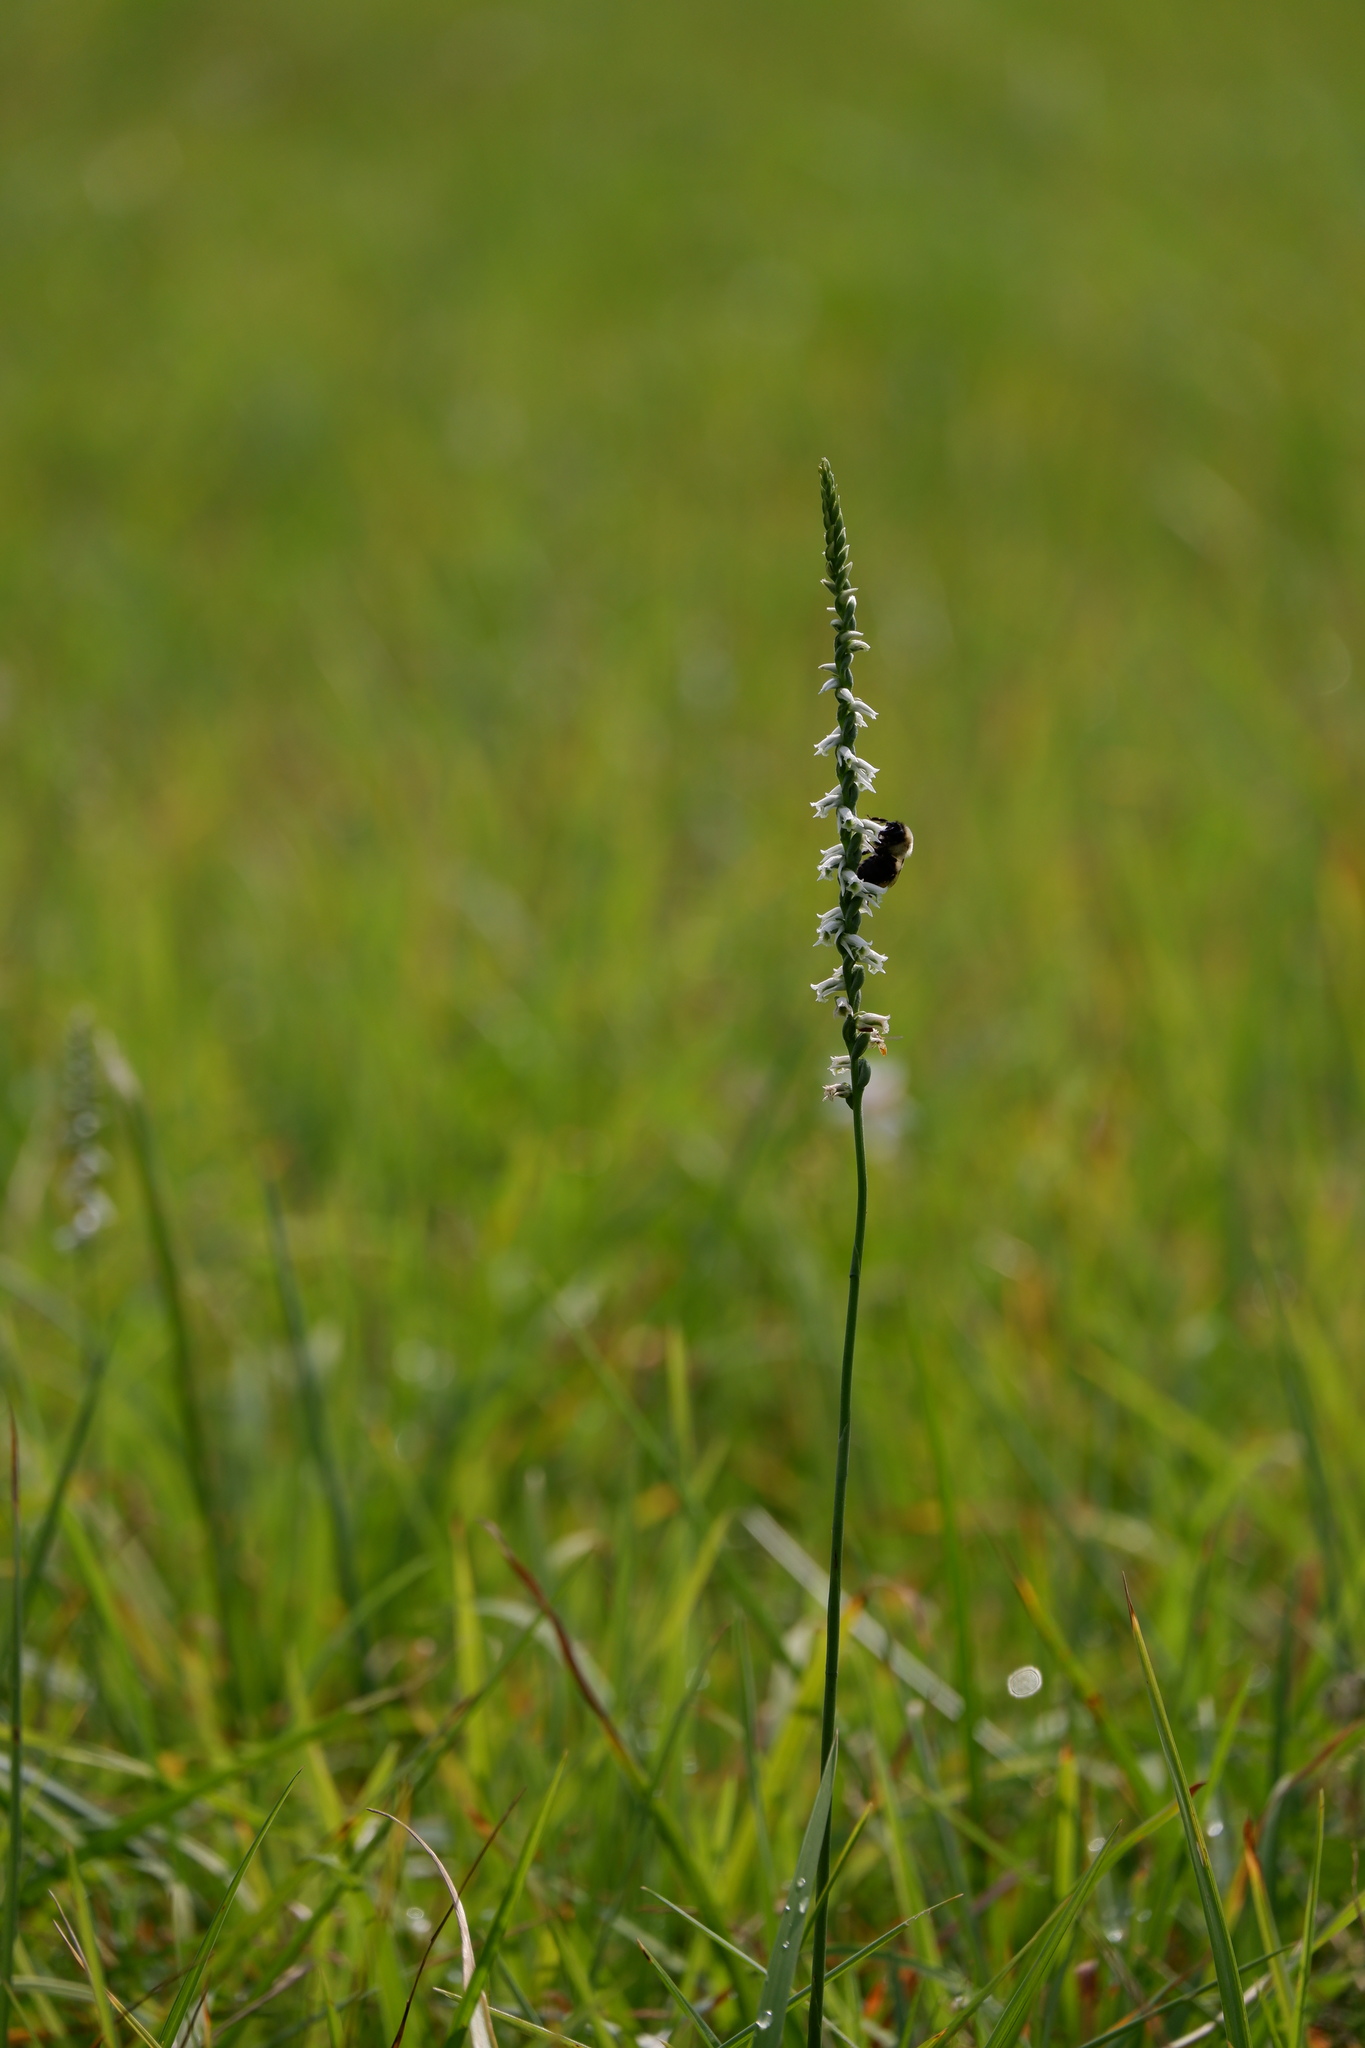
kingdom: Plantae
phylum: Tracheophyta
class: Liliopsida
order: Asparagales
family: Orchidaceae
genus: Spiranthes
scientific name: Spiranthes lacera
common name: Northern slender ladies'-tresses
